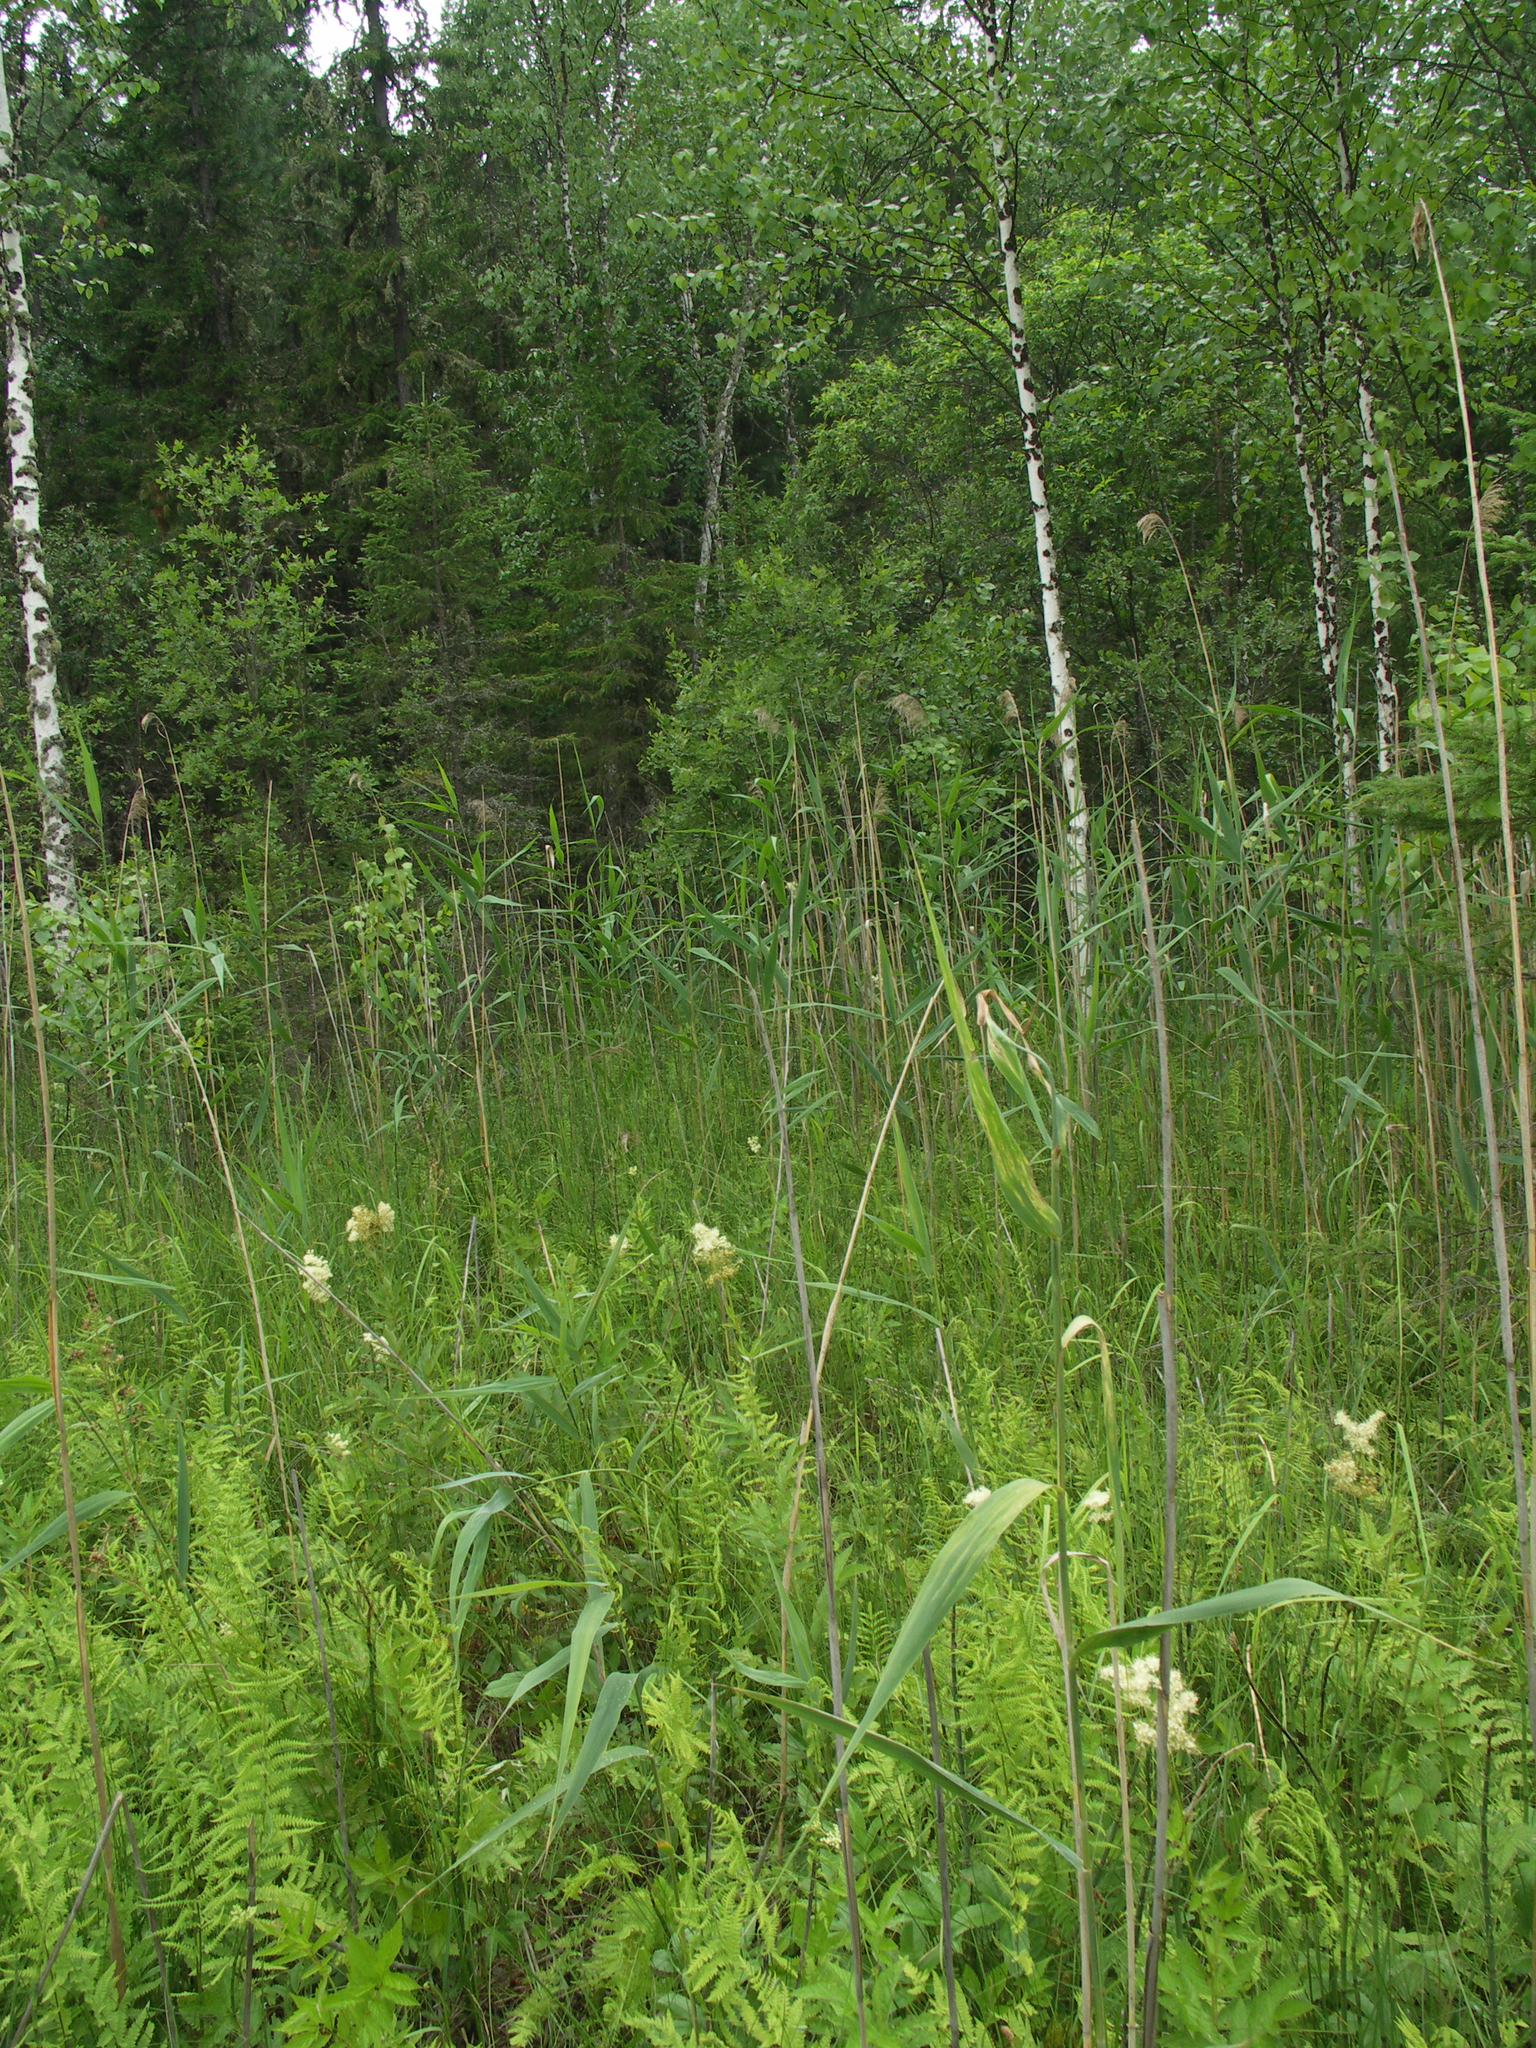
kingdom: Plantae
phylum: Tracheophyta
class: Liliopsida
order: Poales
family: Poaceae
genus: Phragmites
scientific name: Phragmites australis
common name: Common reed
